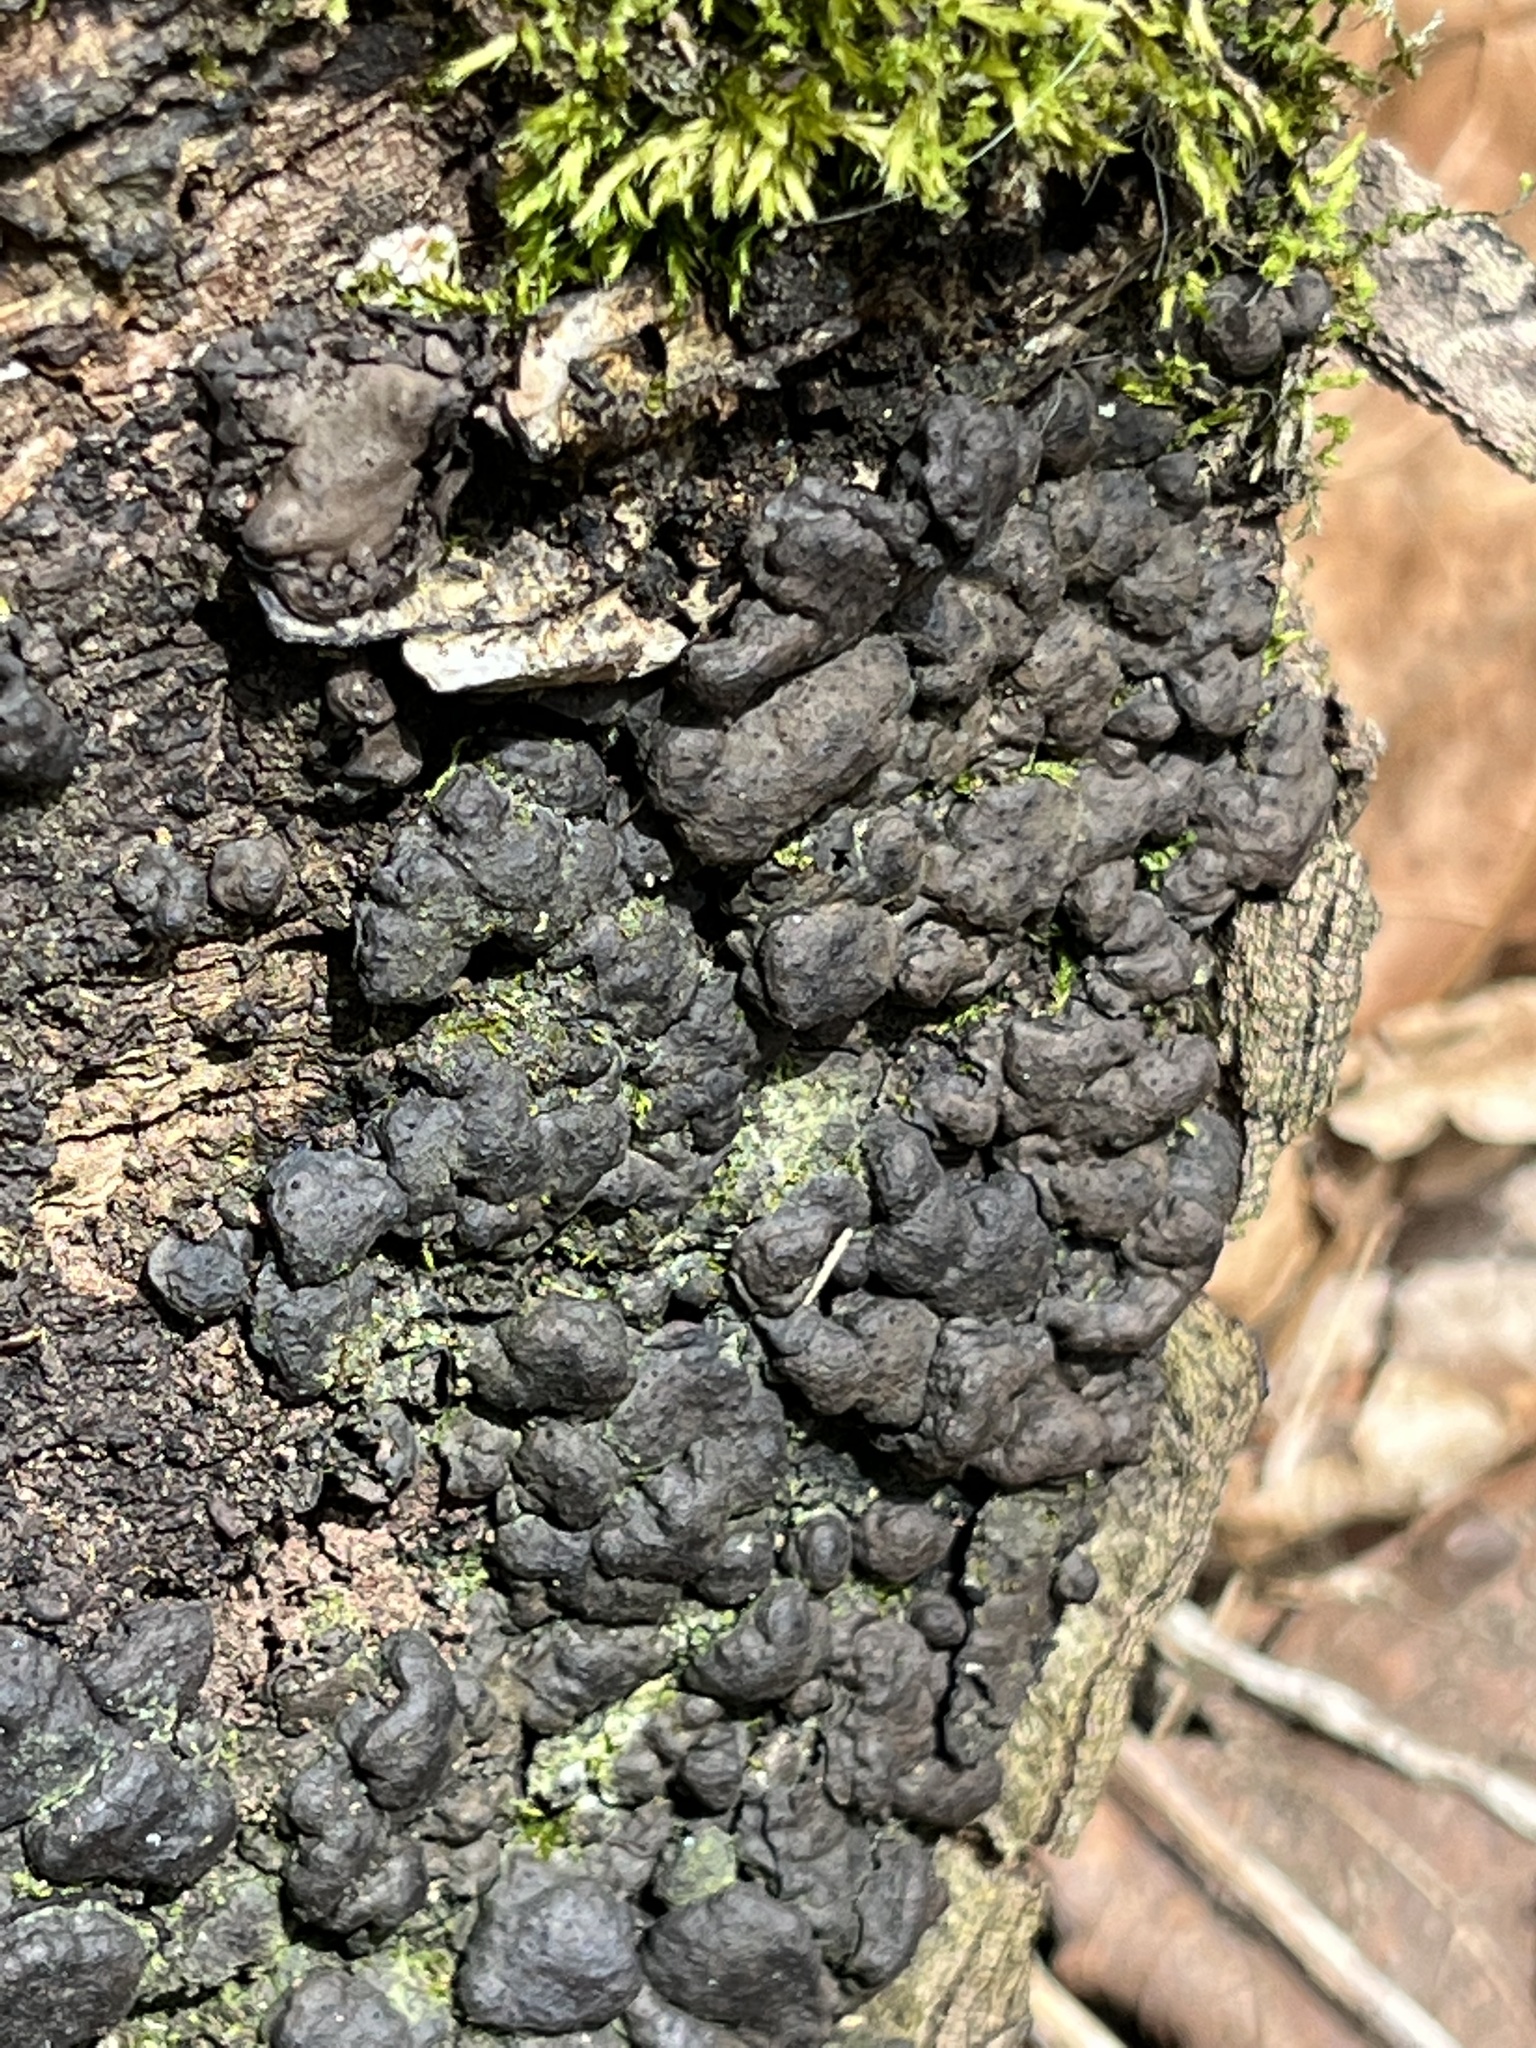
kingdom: Fungi
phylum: Ascomycota
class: Sordariomycetes
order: Xylariales
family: Xylariaceae
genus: Kretzschmaria
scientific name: Kretzschmaria deusta
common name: Brittle cinder
